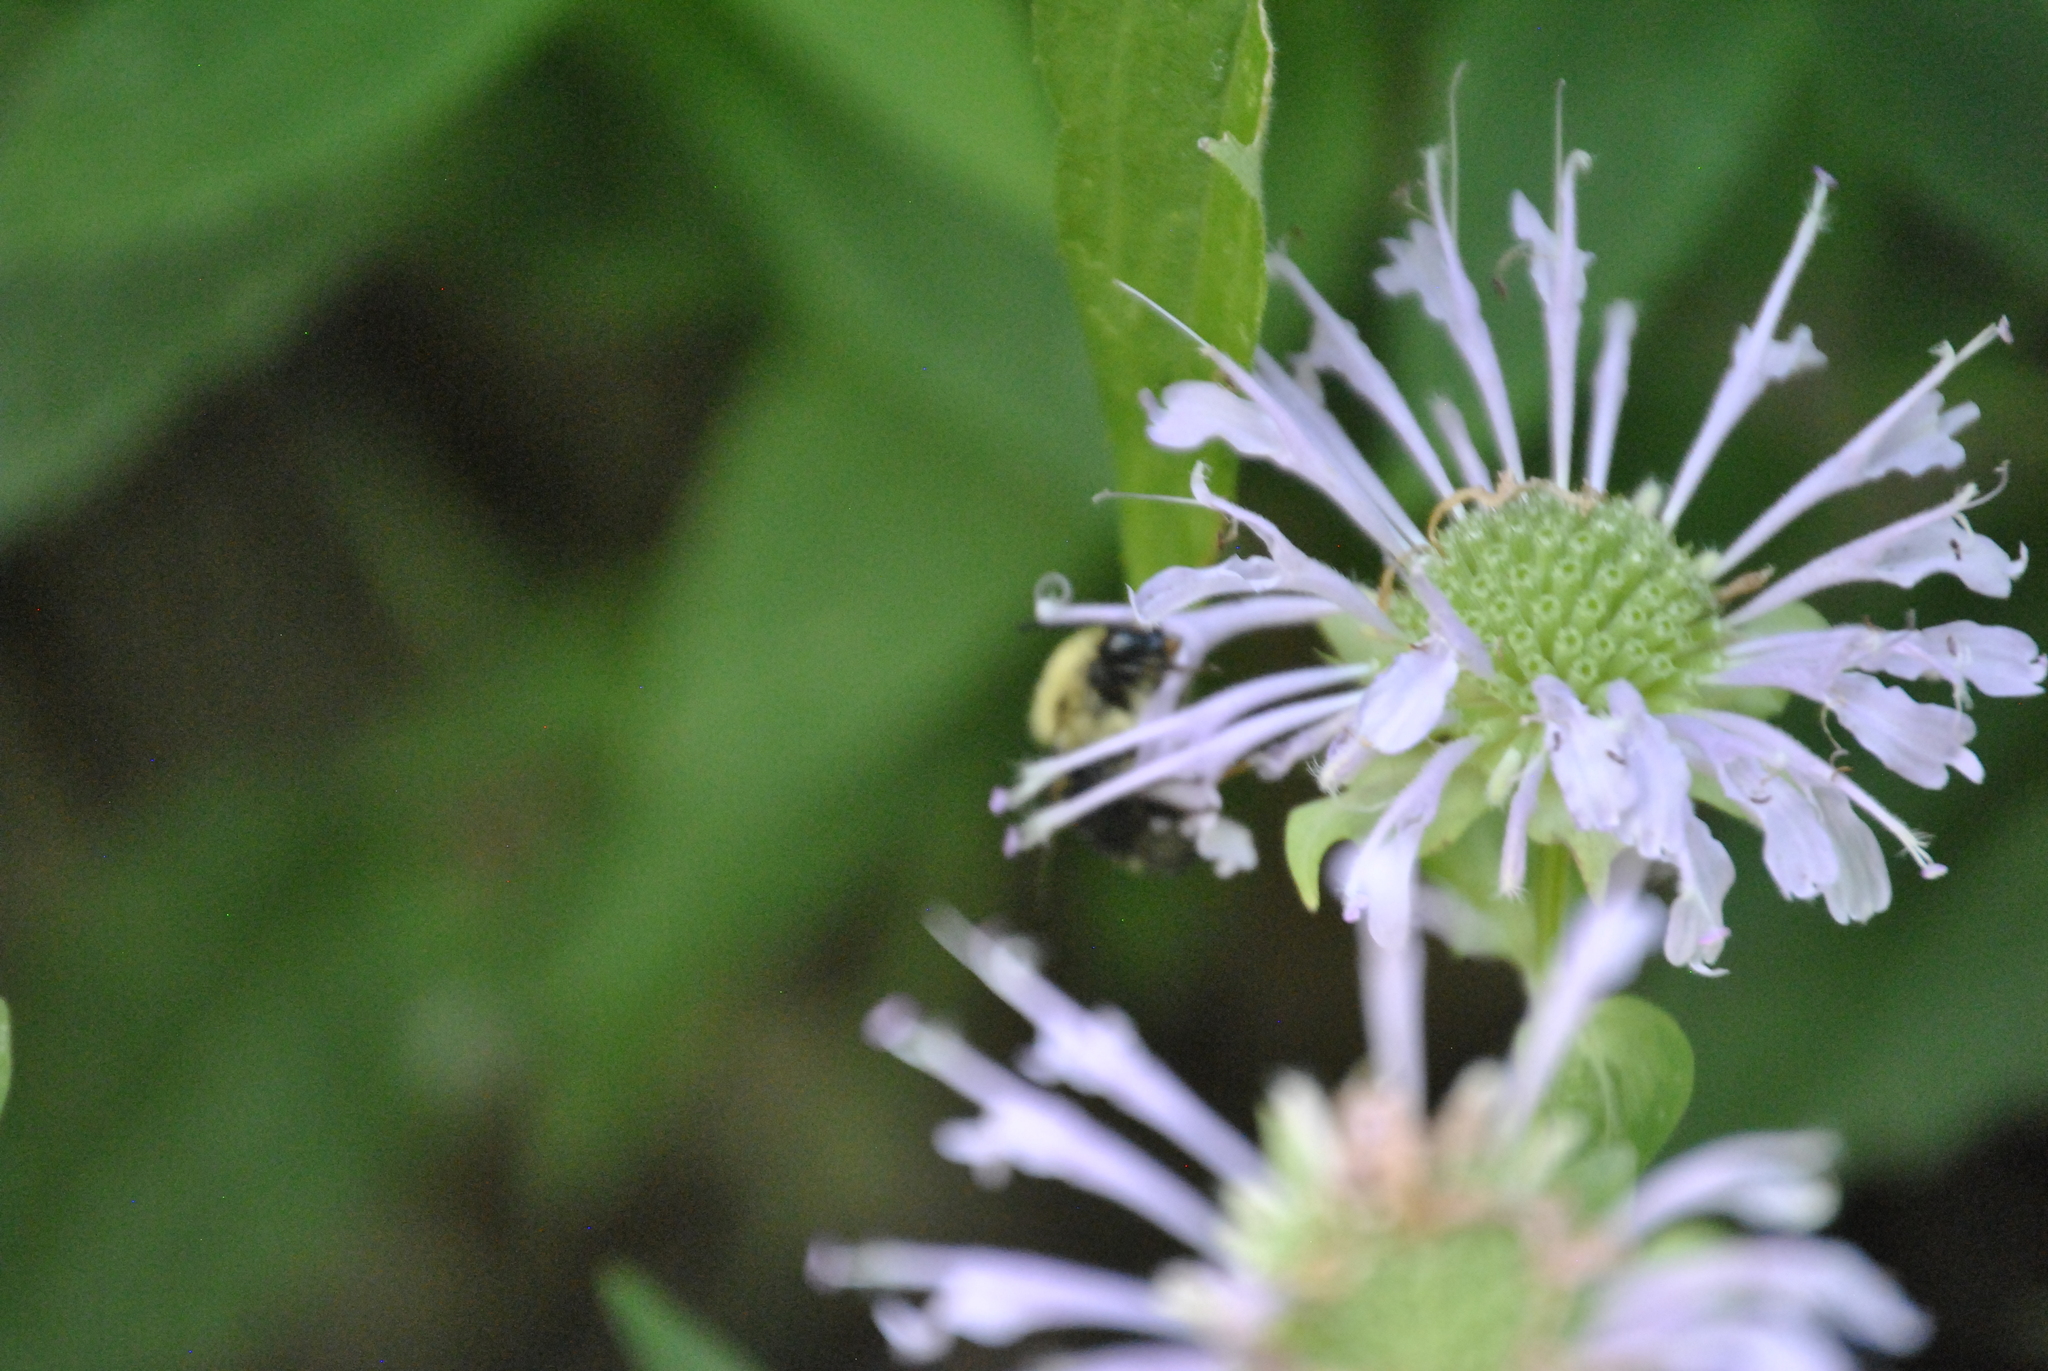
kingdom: Animalia
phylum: Arthropoda
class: Insecta
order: Hymenoptera
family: Apidae
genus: Bombus
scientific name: Bombus bimaculatus
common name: Two-spotted bumble bee
